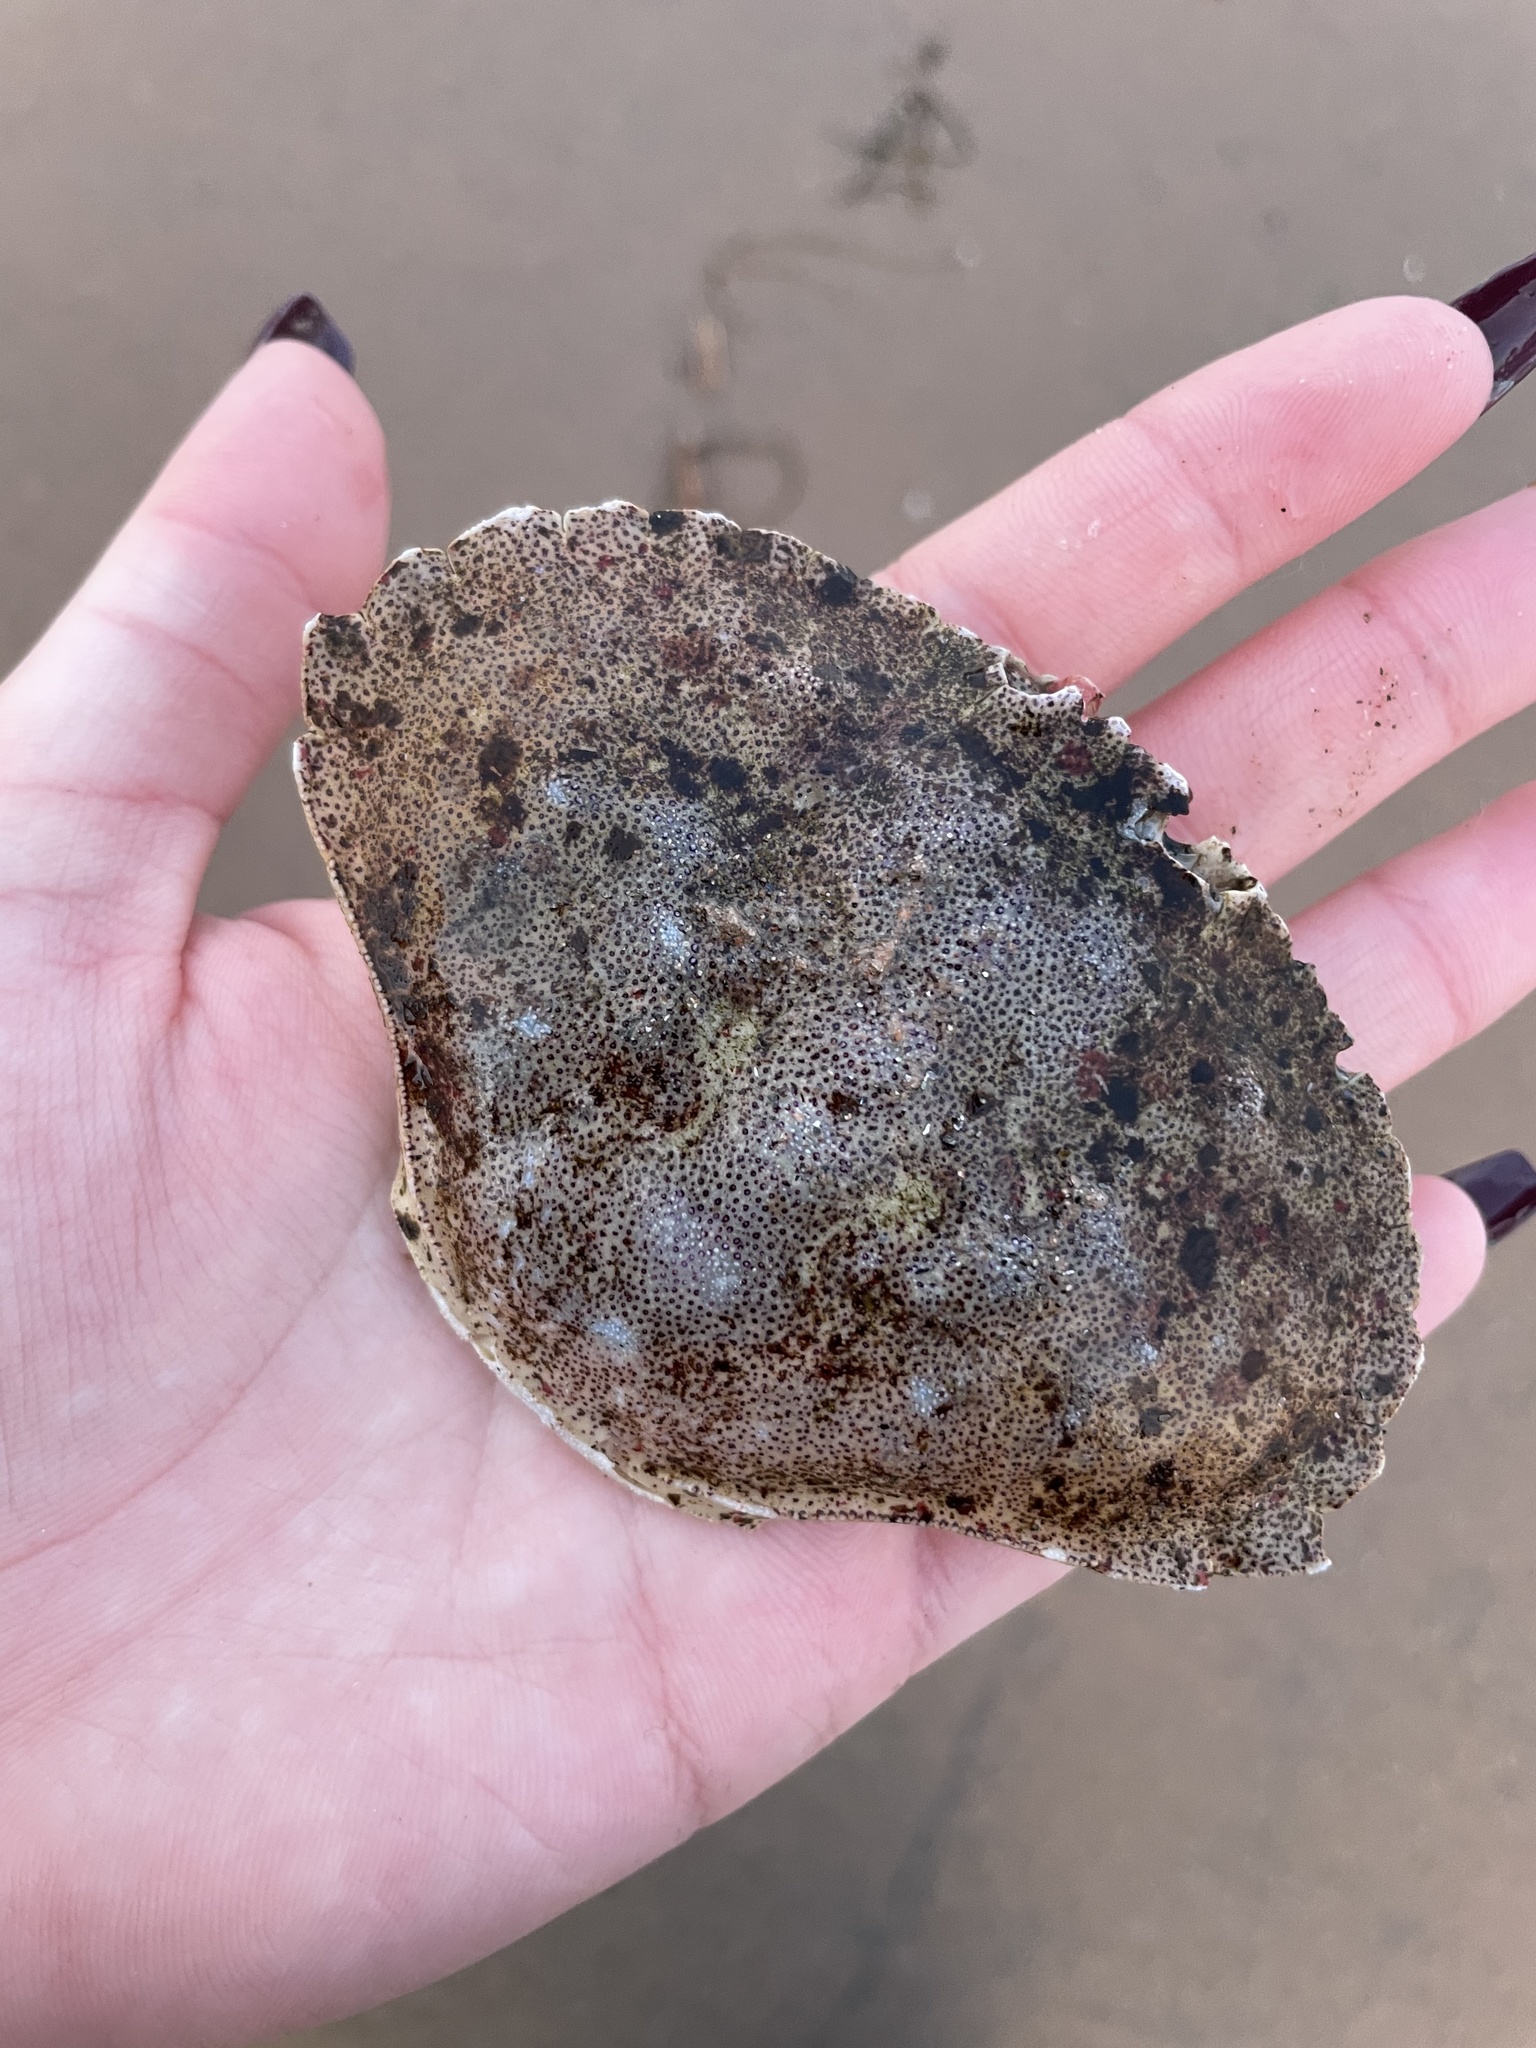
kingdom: Animalia
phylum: Arthropoda
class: Malacostraca
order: Decapoda
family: Cancridae
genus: Cancer
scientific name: Cancer irroratus
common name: Atlantic rock crab
